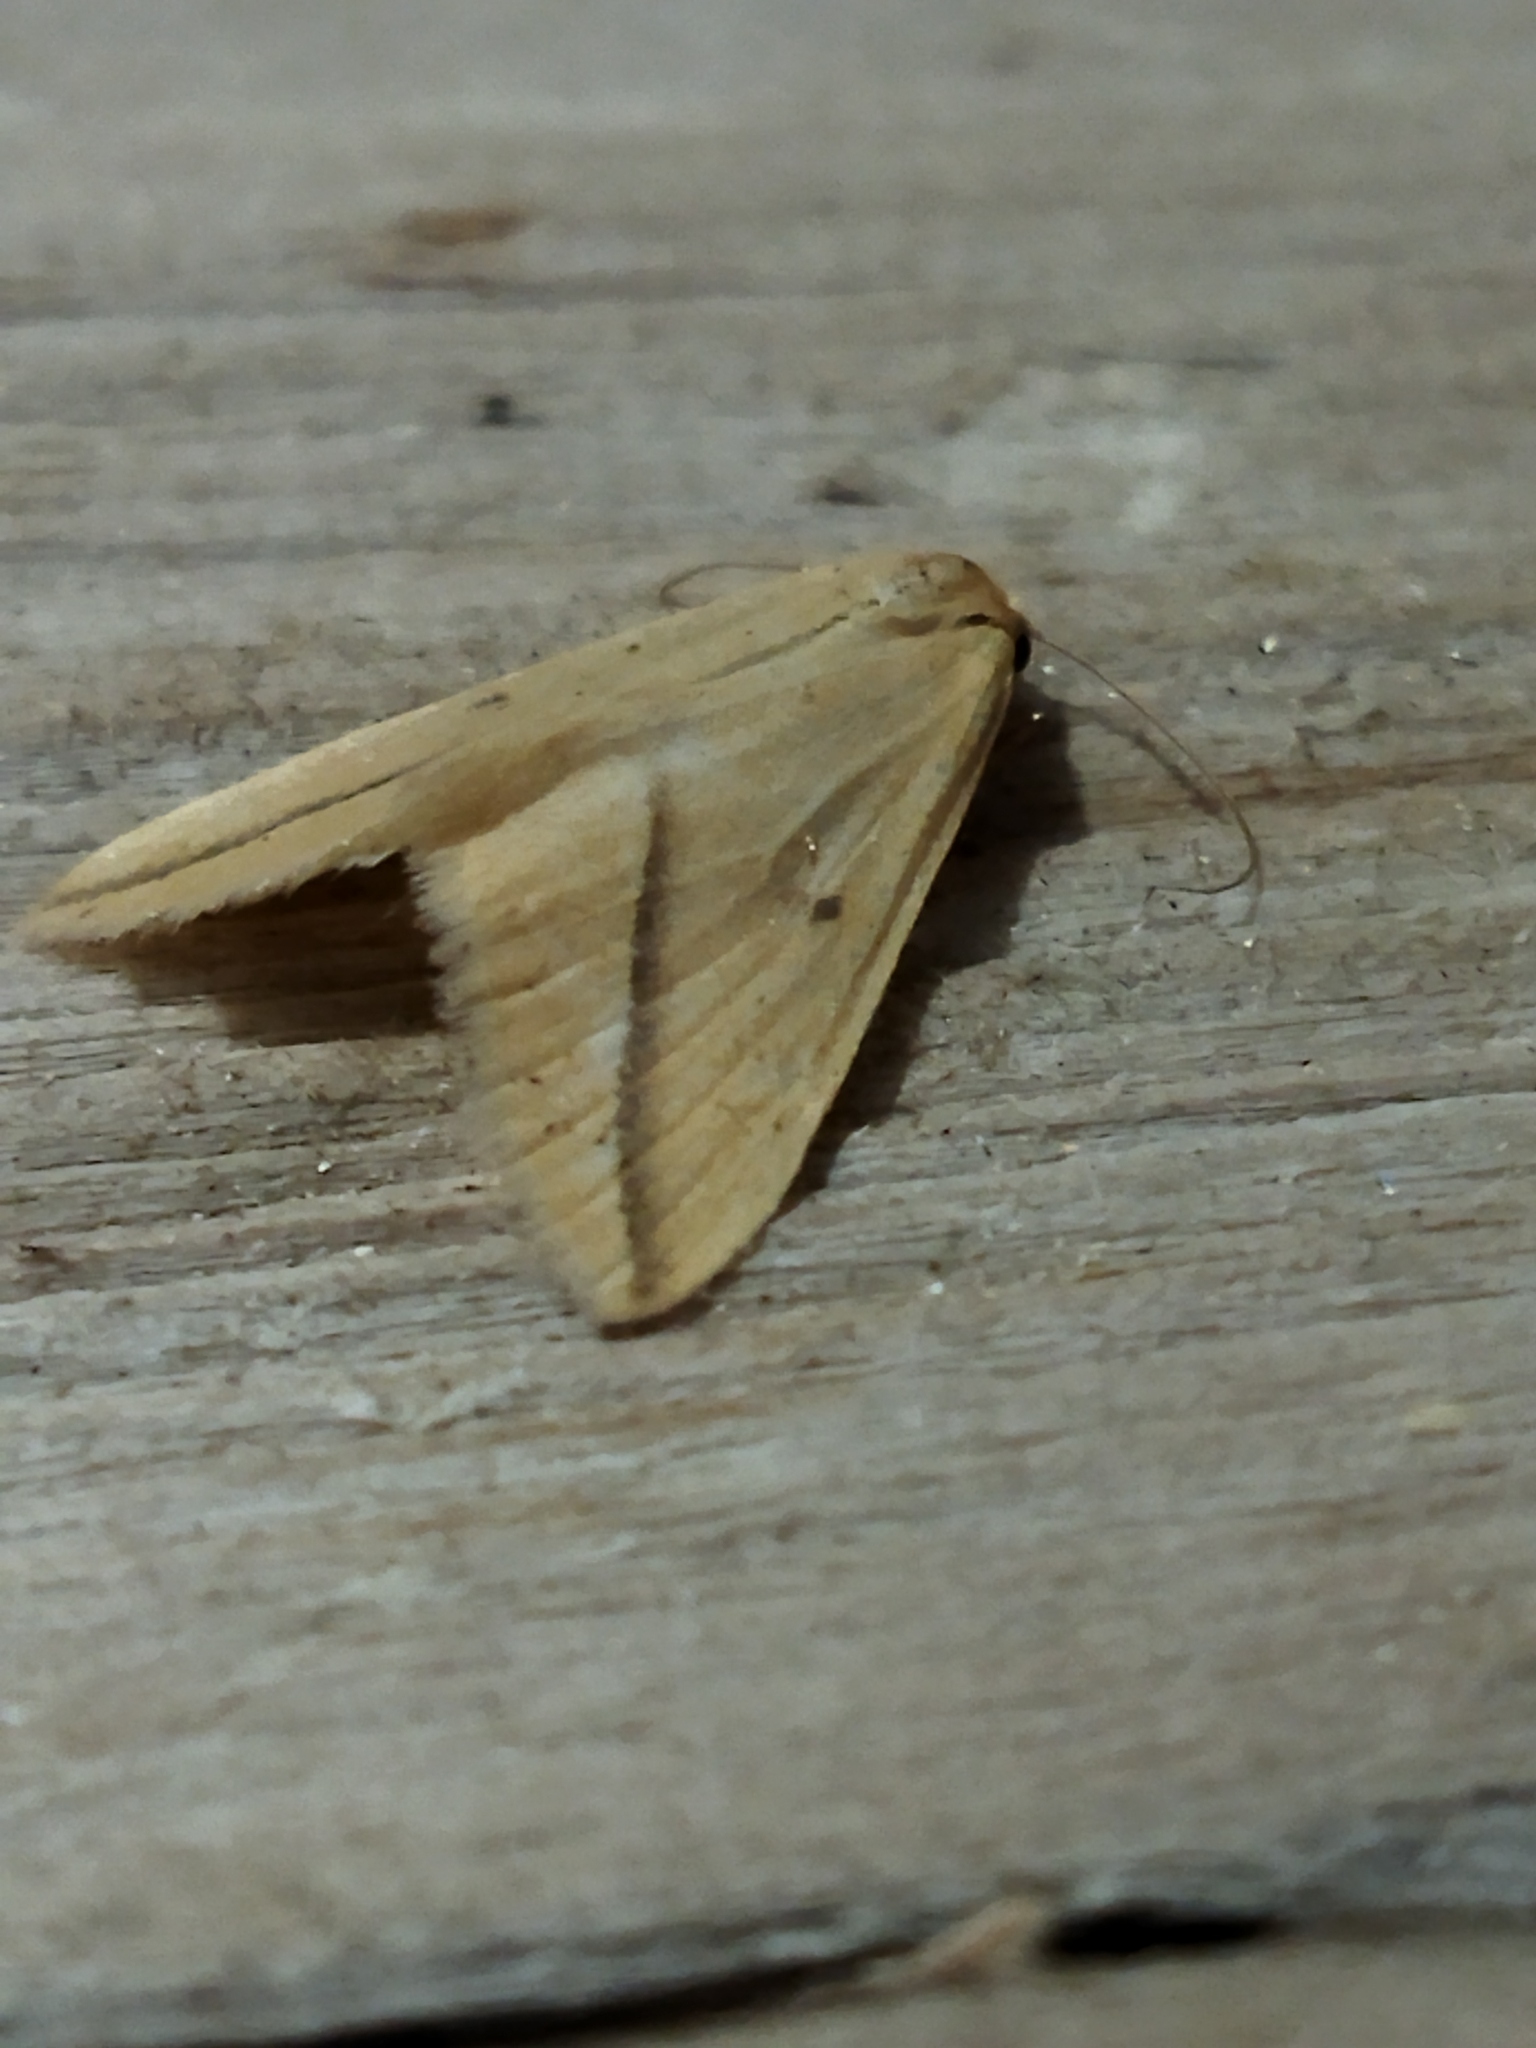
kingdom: Animalia
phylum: Arthropoda
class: Insecta
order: Lepidoptera
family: Geometridae
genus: Rhodometra
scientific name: Rhodometra sacraria
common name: Vestal
